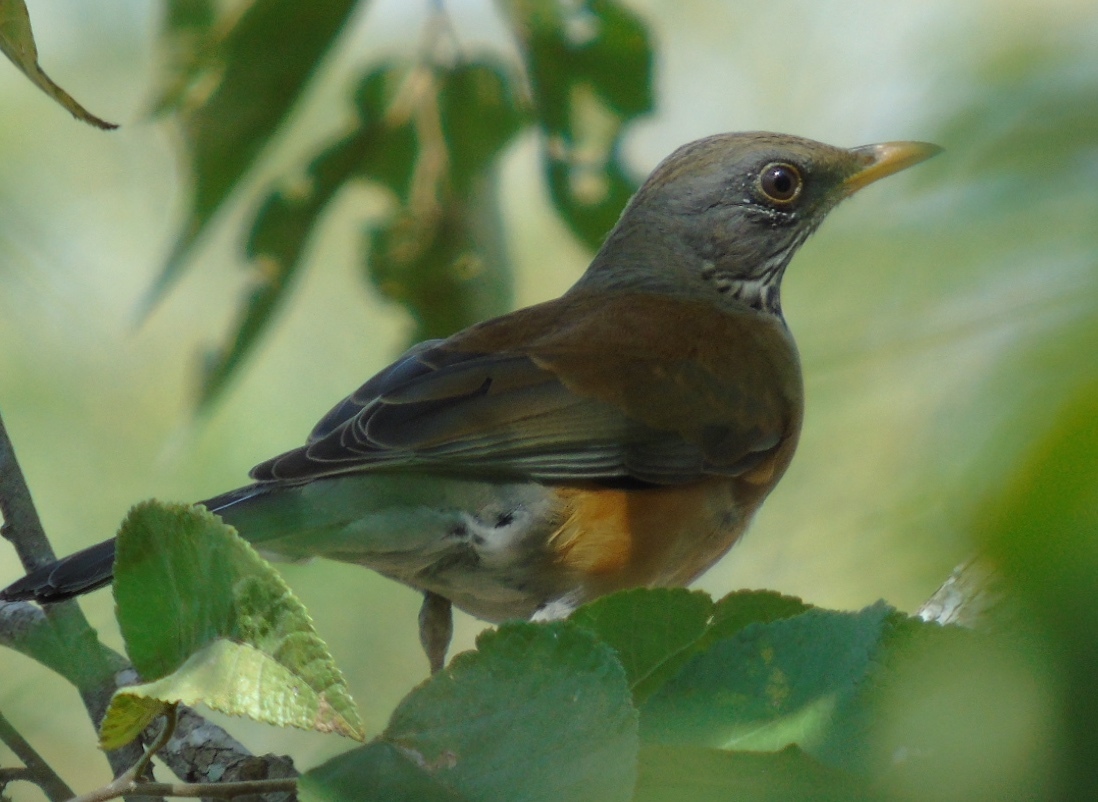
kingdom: Animalia
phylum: Chordata
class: Aves
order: Passeriformes
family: Turdidae
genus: Turdus
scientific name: Turdus rufopalliatus
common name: Rufous-backed robin
